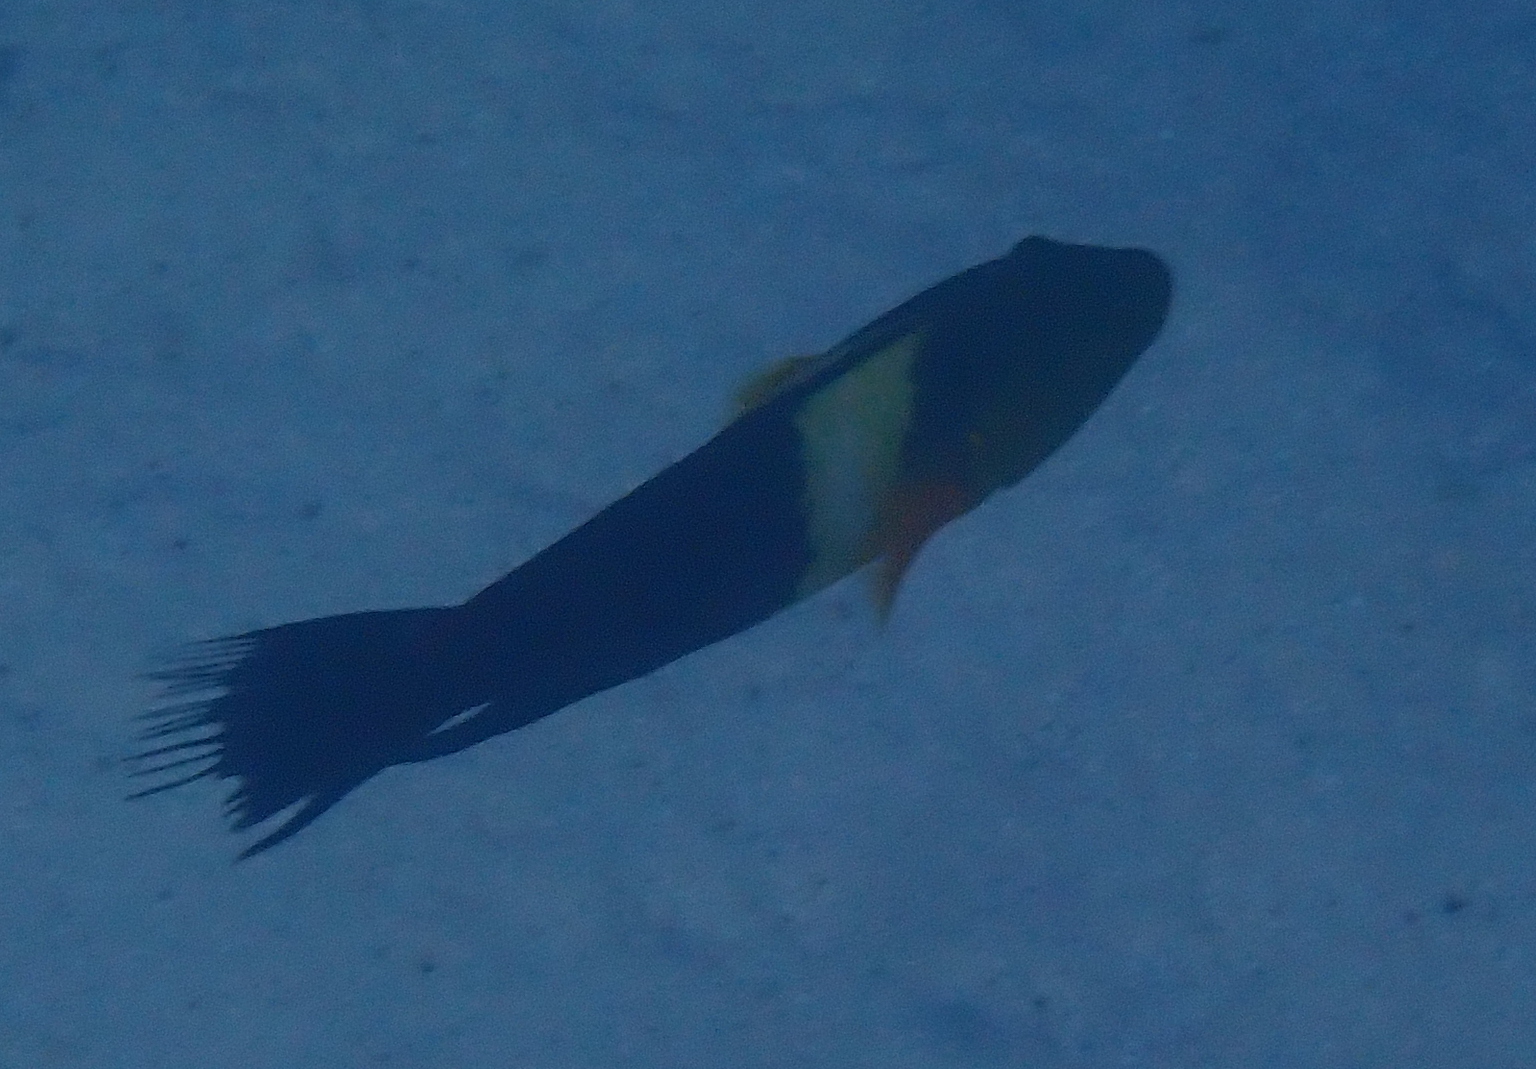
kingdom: Animalia
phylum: Chordata
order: Perciformes
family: Labridae
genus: Cheilinus
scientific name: Cheilinus lunulatus
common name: Broomtail wrasse
